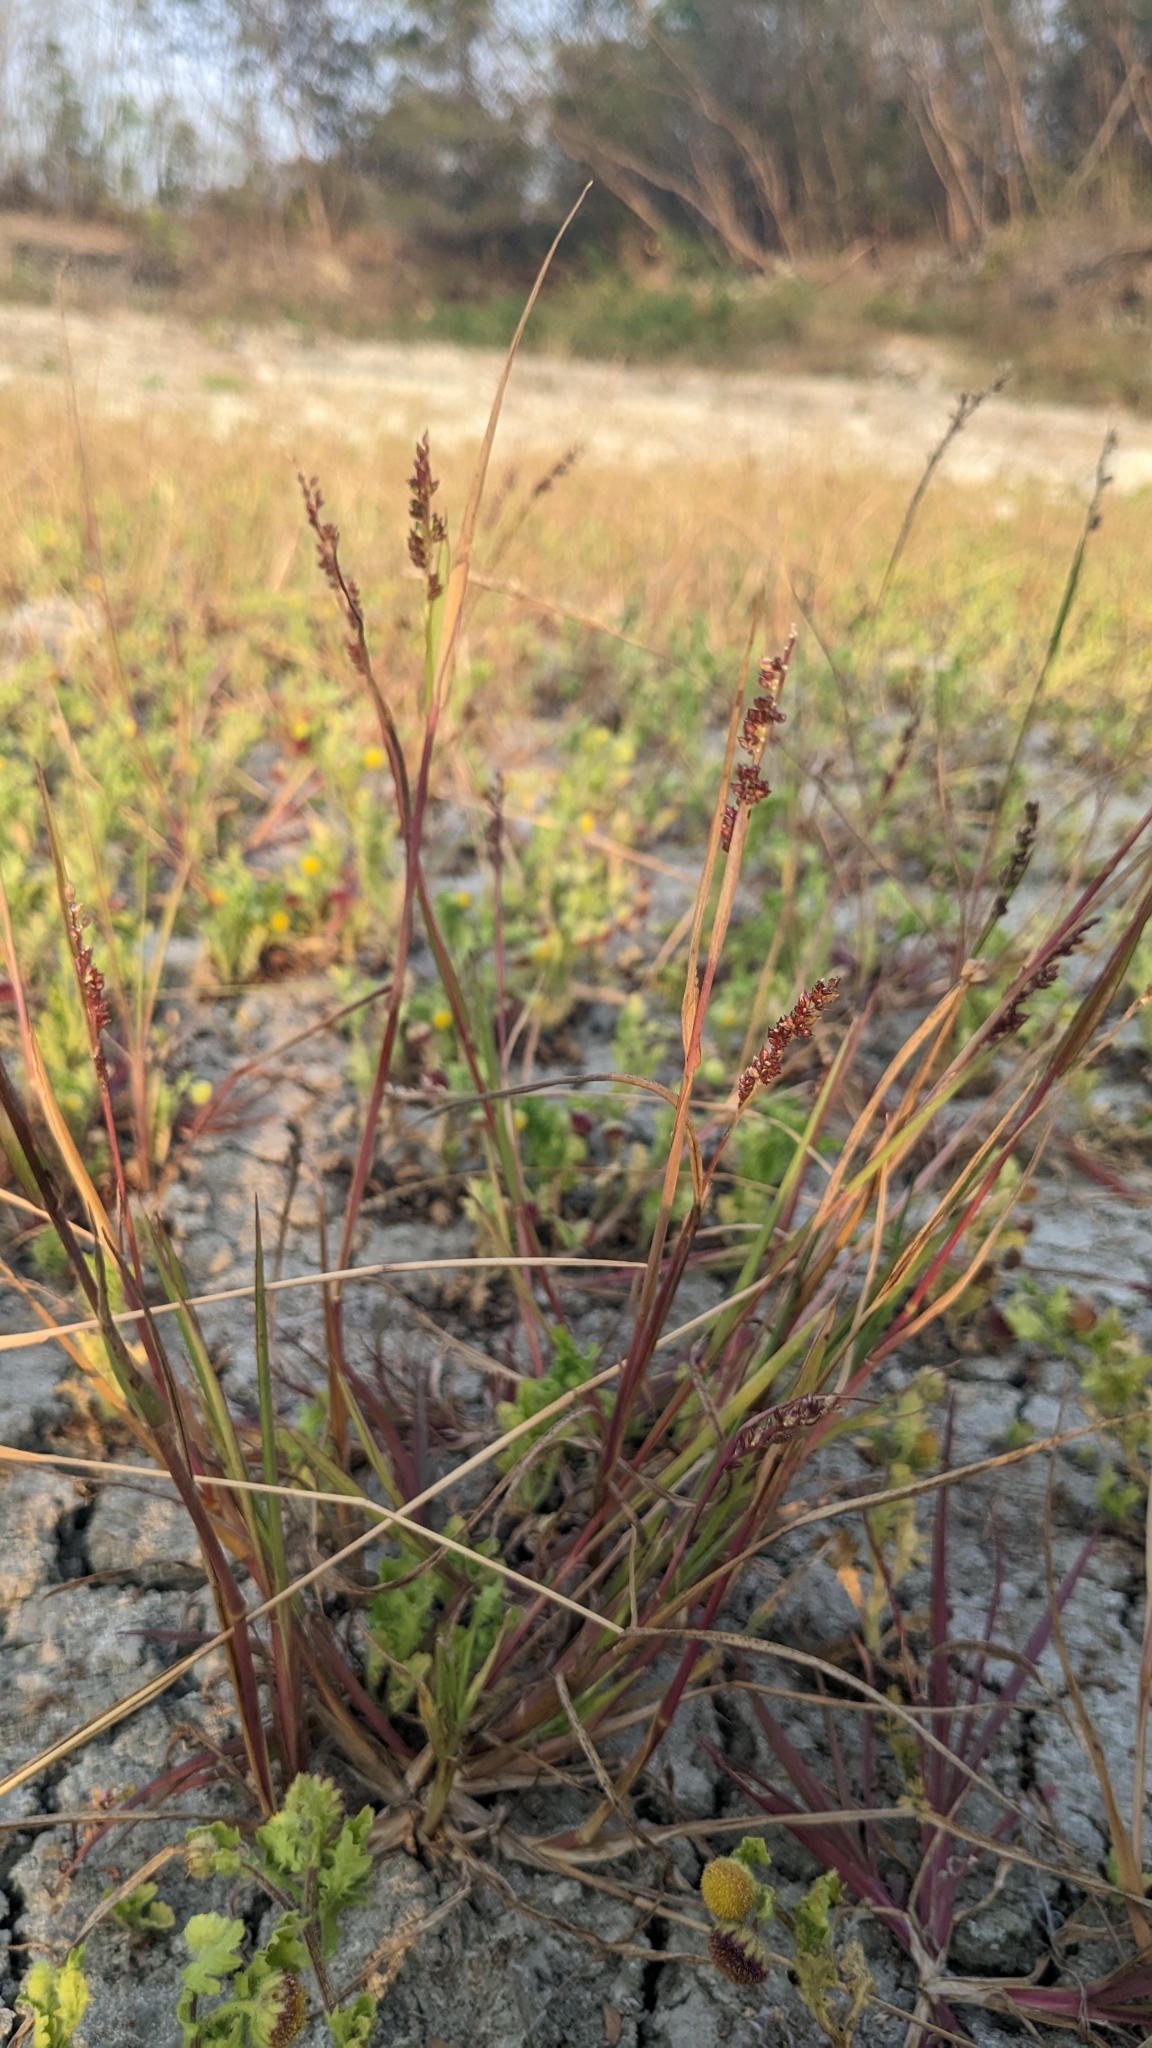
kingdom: Plantae
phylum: Tracheophyta
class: Liliopsida
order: Poales
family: Poaceae
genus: Echinochloa
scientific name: Echinochloa colonum
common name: Jungle rice
